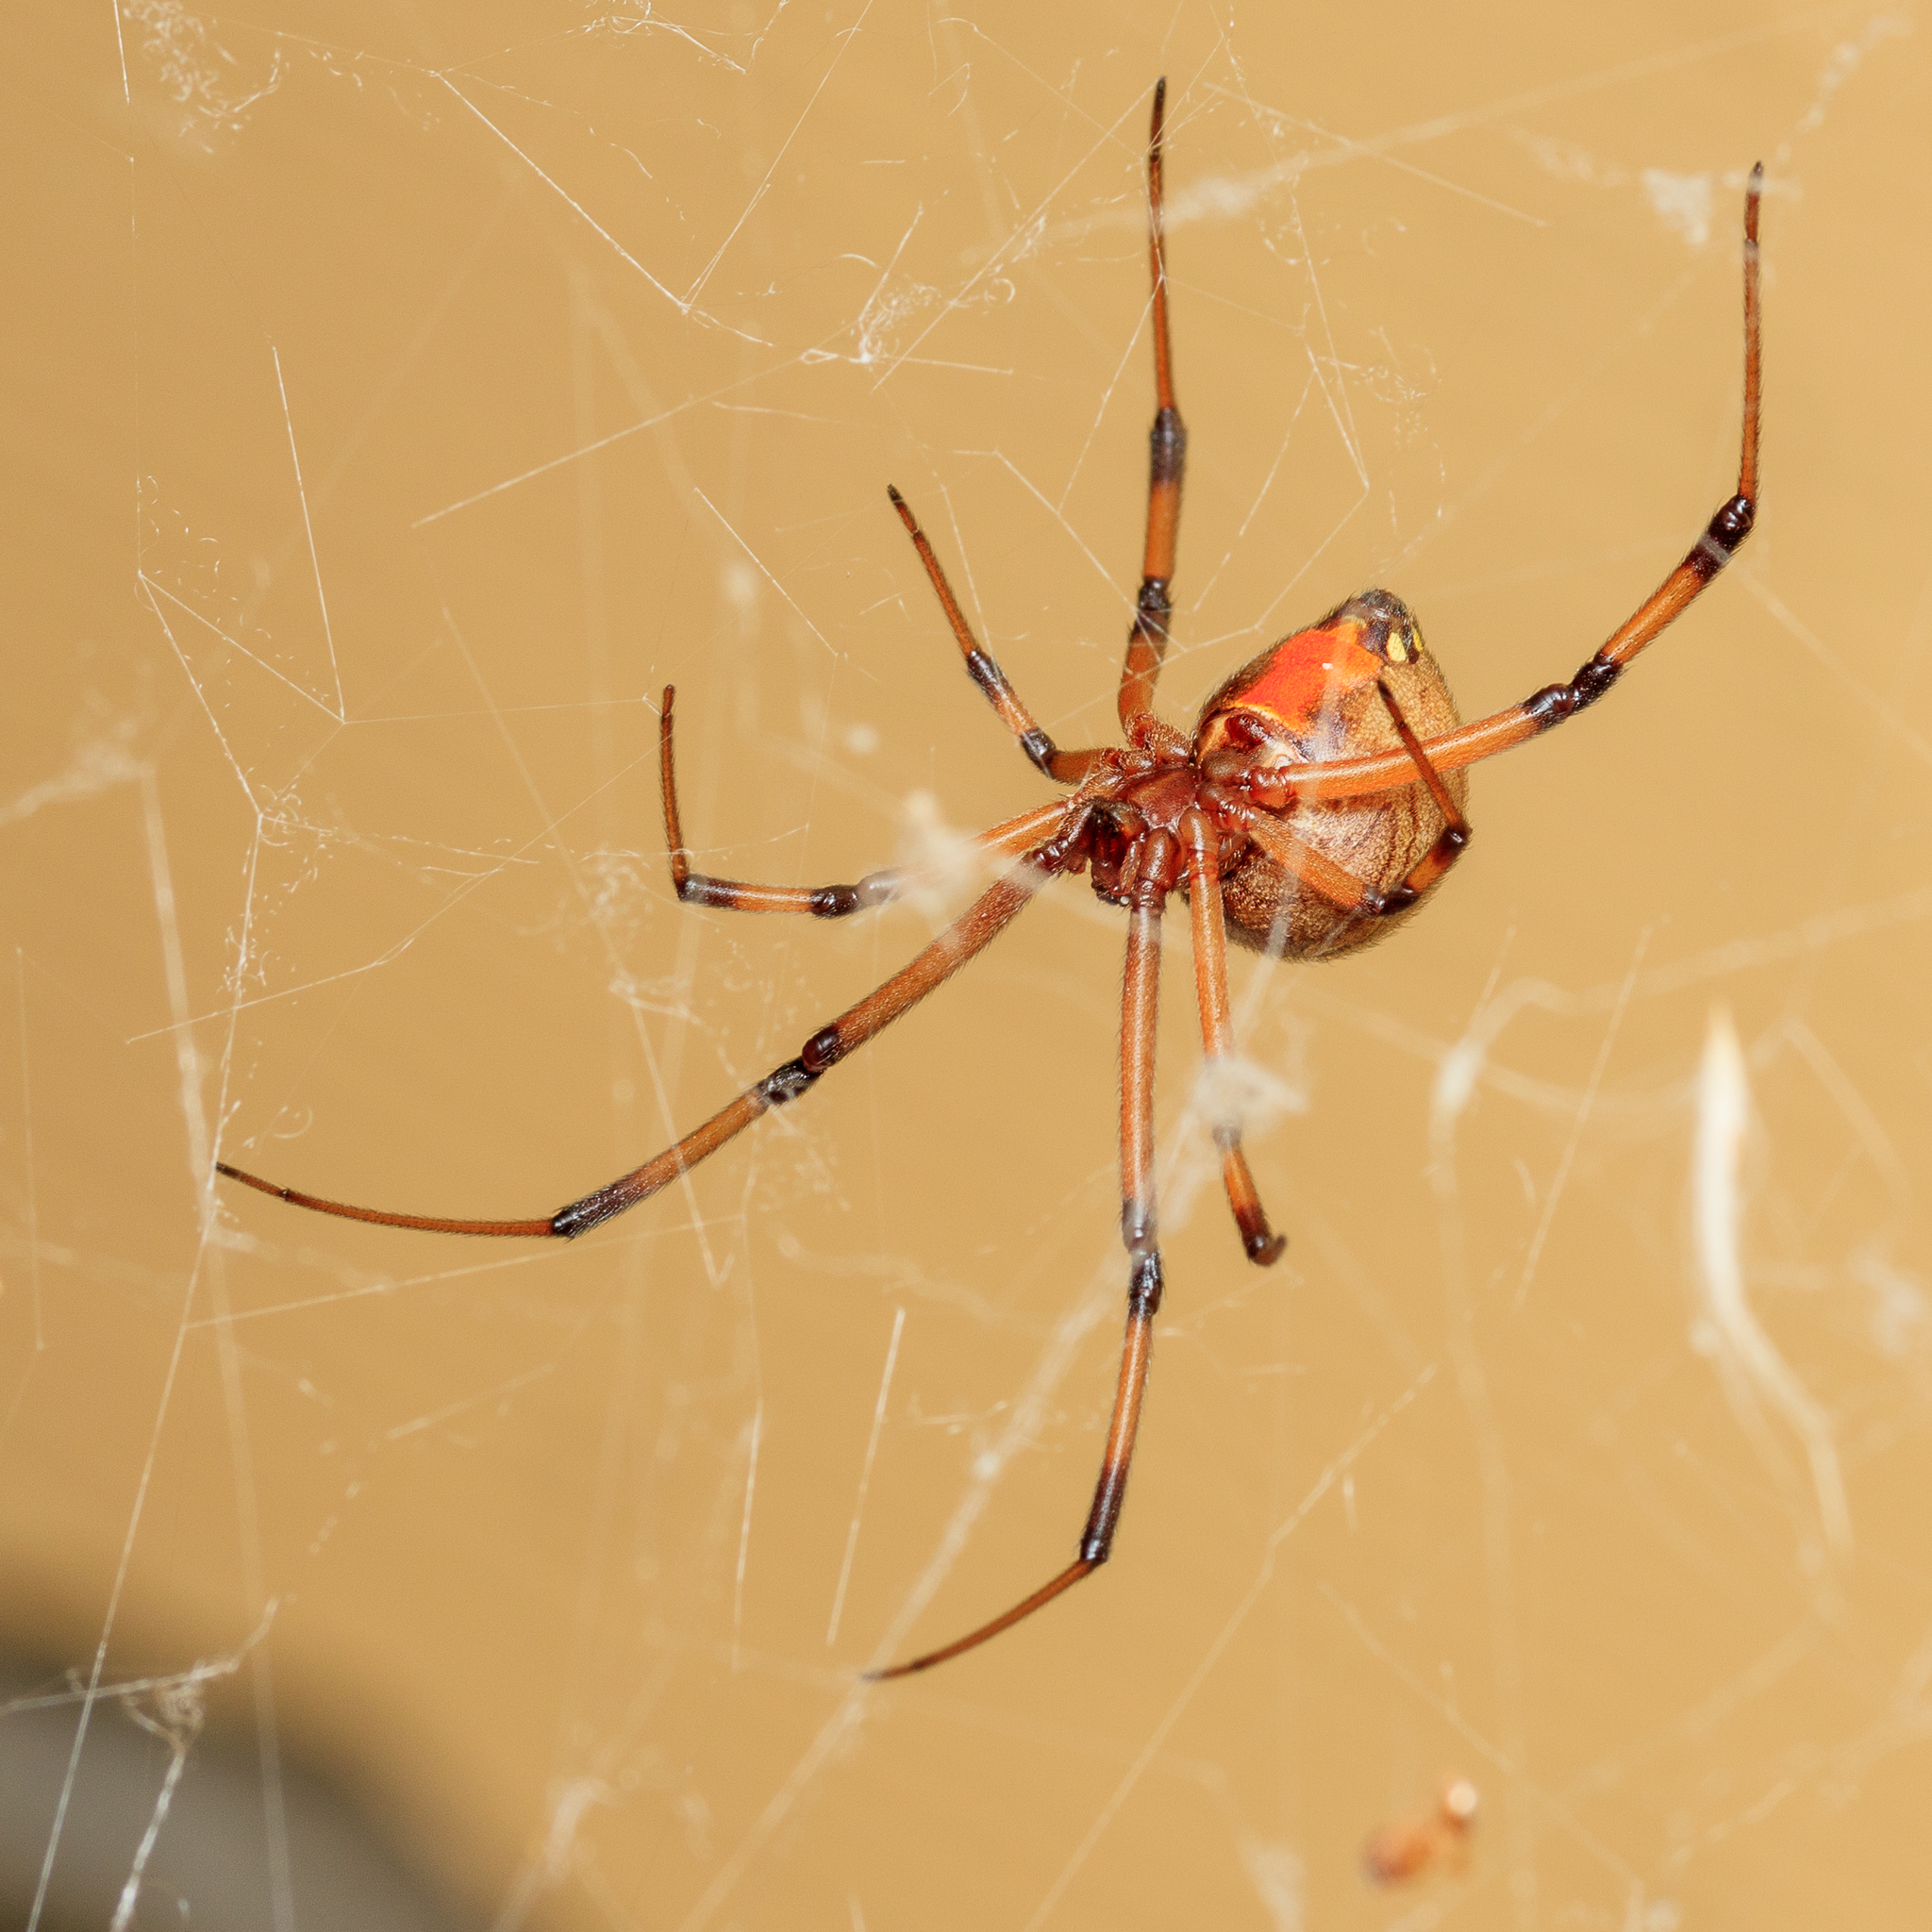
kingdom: Animalia
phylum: Arthropoda
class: Arachnida
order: Araneae
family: Theridiidae
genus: Latrodectus
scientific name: Latrodectus geometricus
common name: Brown widow spider
